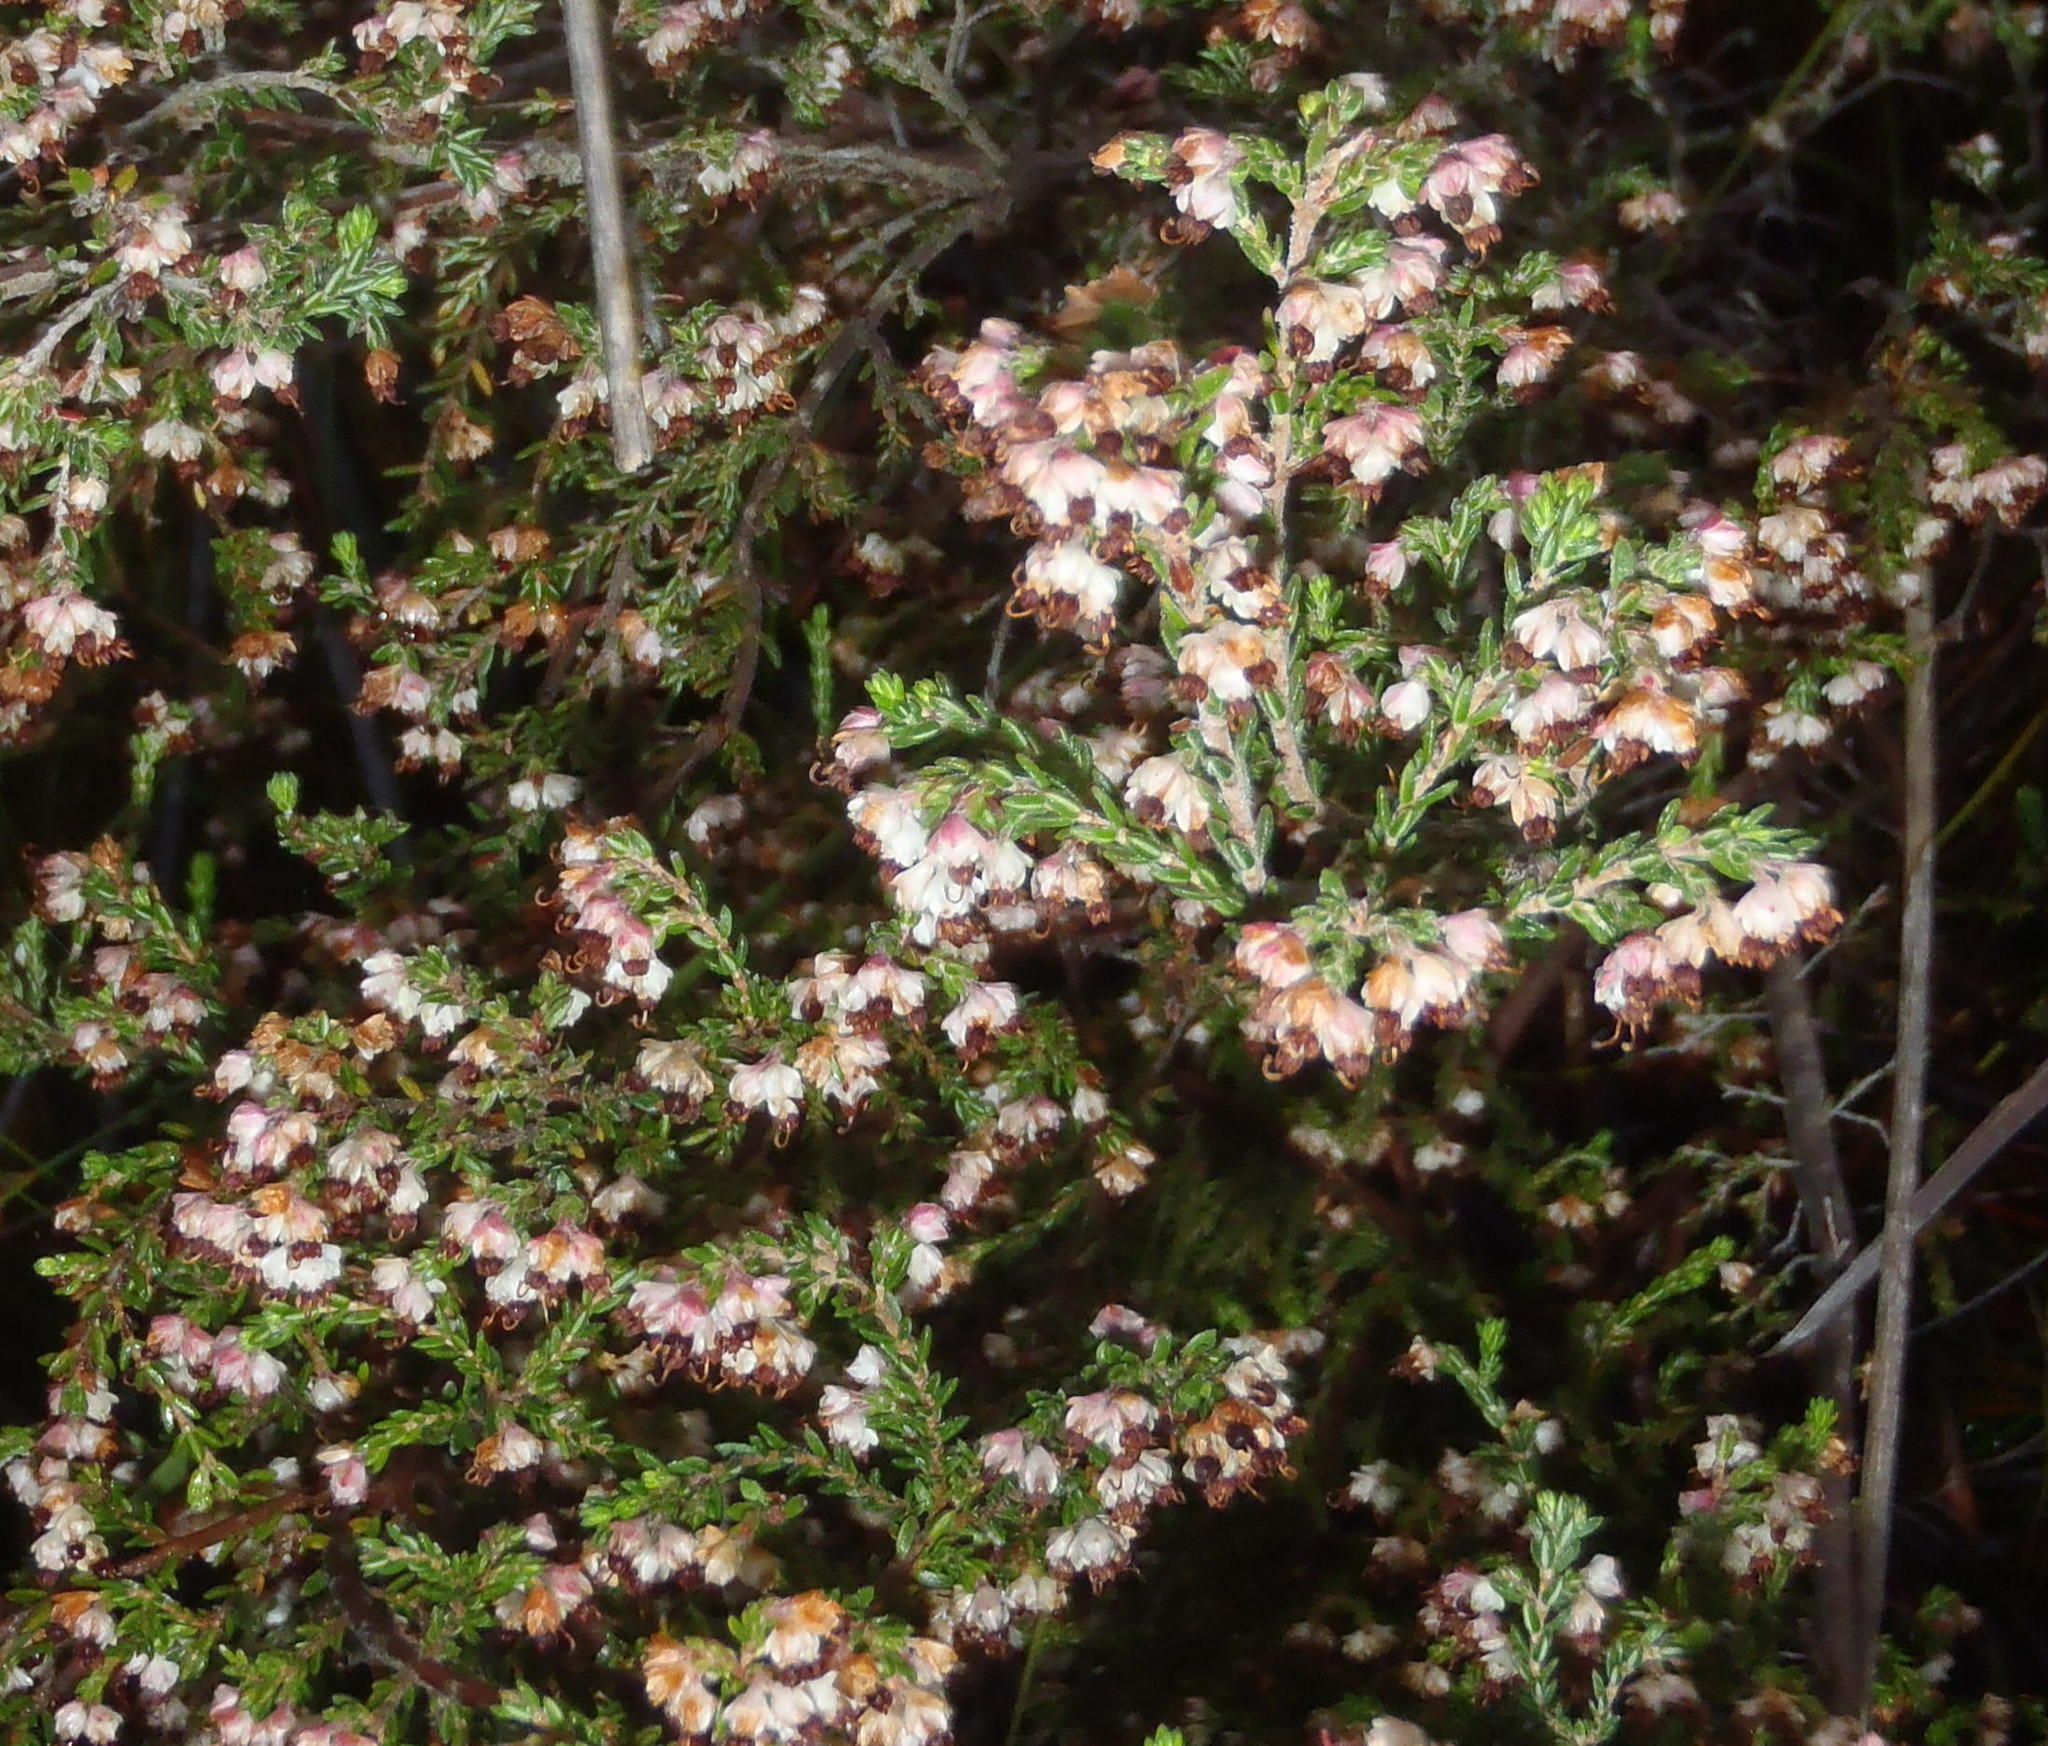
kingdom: Plantae
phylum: Tracheophyta
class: Magnoliopsida
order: Ericales
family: Ericaceae
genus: Erica
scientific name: Erica triceps
